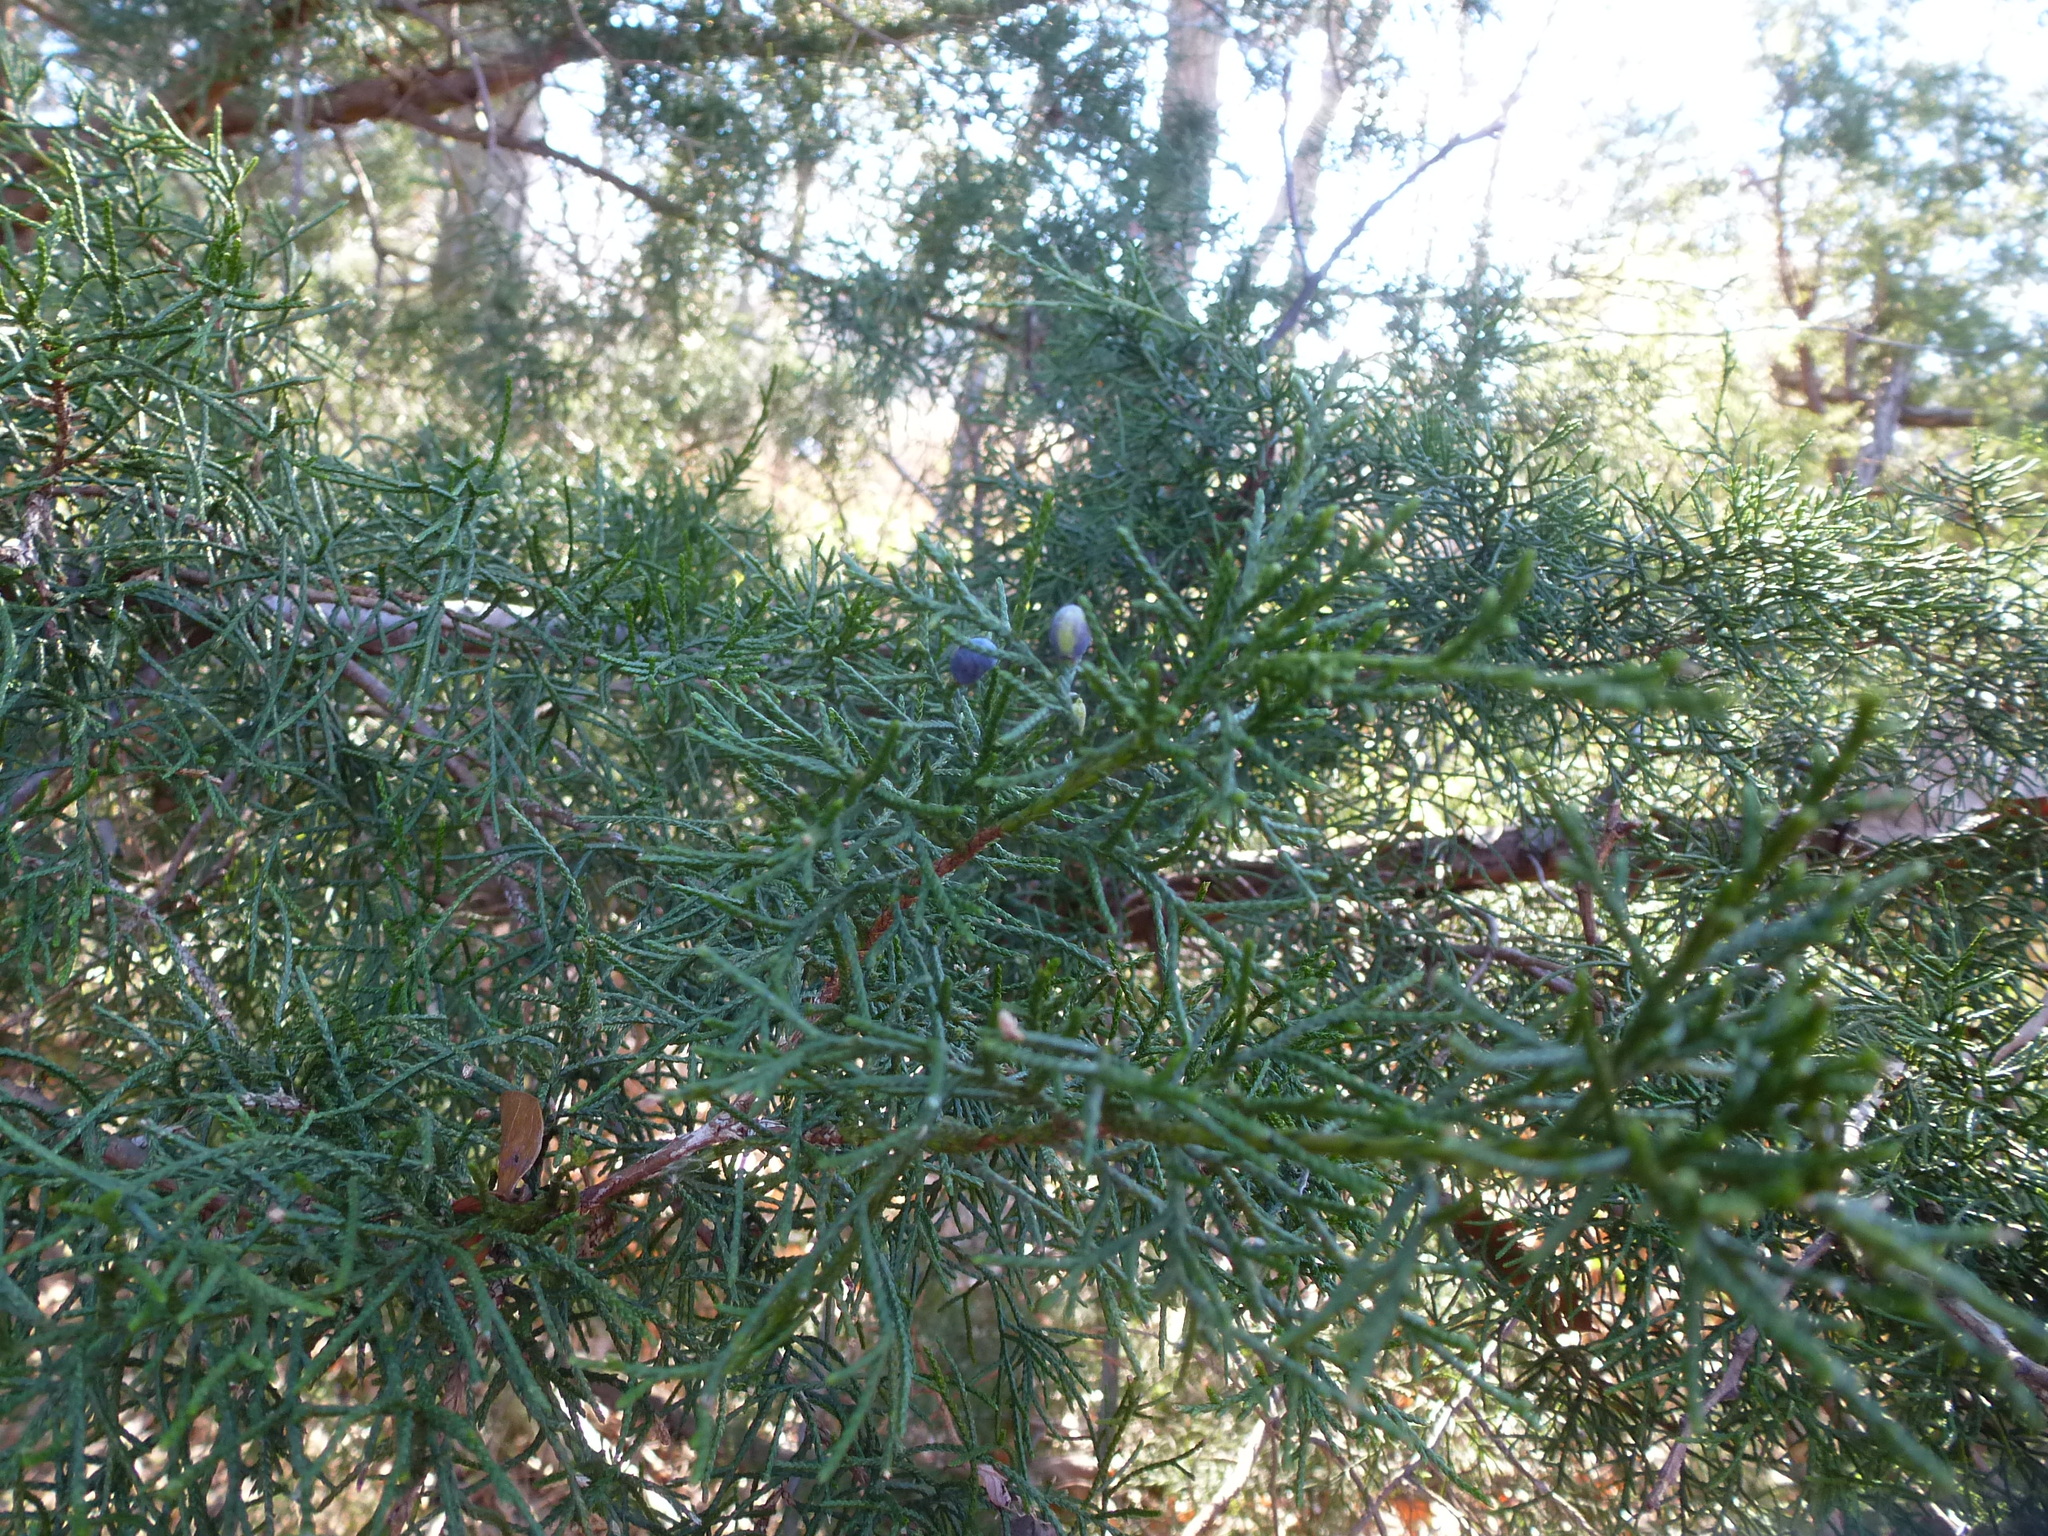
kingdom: Plantae
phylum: Tracheophyta
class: Pinopsida
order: Pinales
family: Cupressaceae
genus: Juniperus
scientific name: Juniperus virginiana
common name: Red juniper
